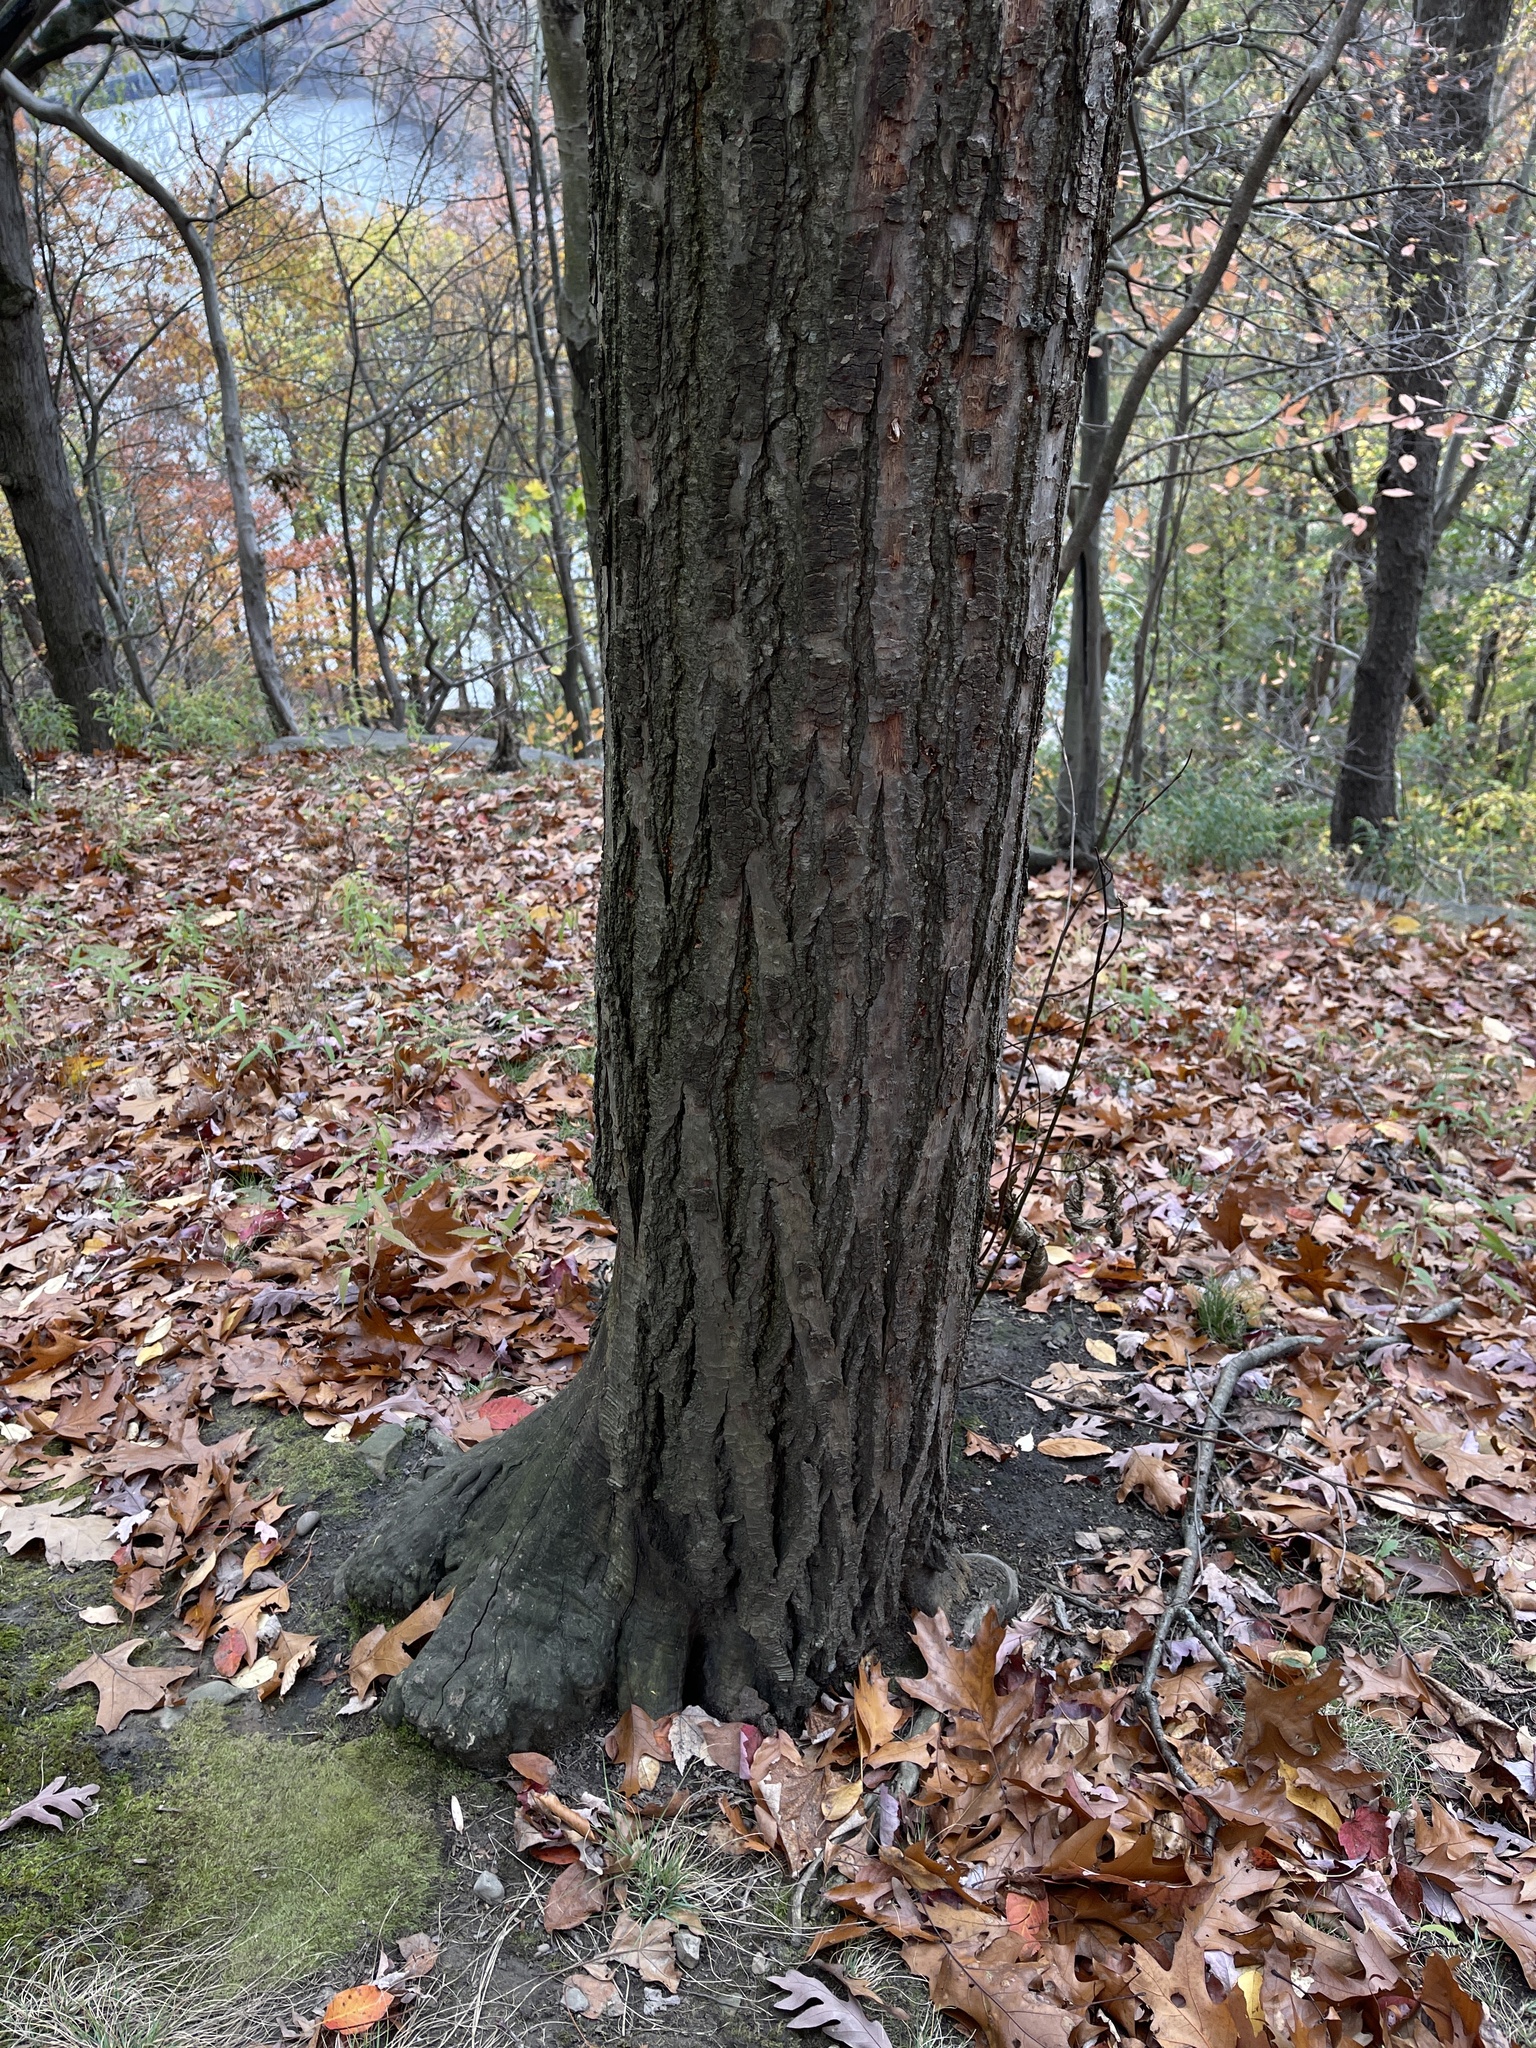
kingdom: Plantae
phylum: Tracheophyta
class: Magnoliopsida
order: Fagales
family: Fagaceae
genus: Castanea
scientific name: Castanea dentata
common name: American chestnut
